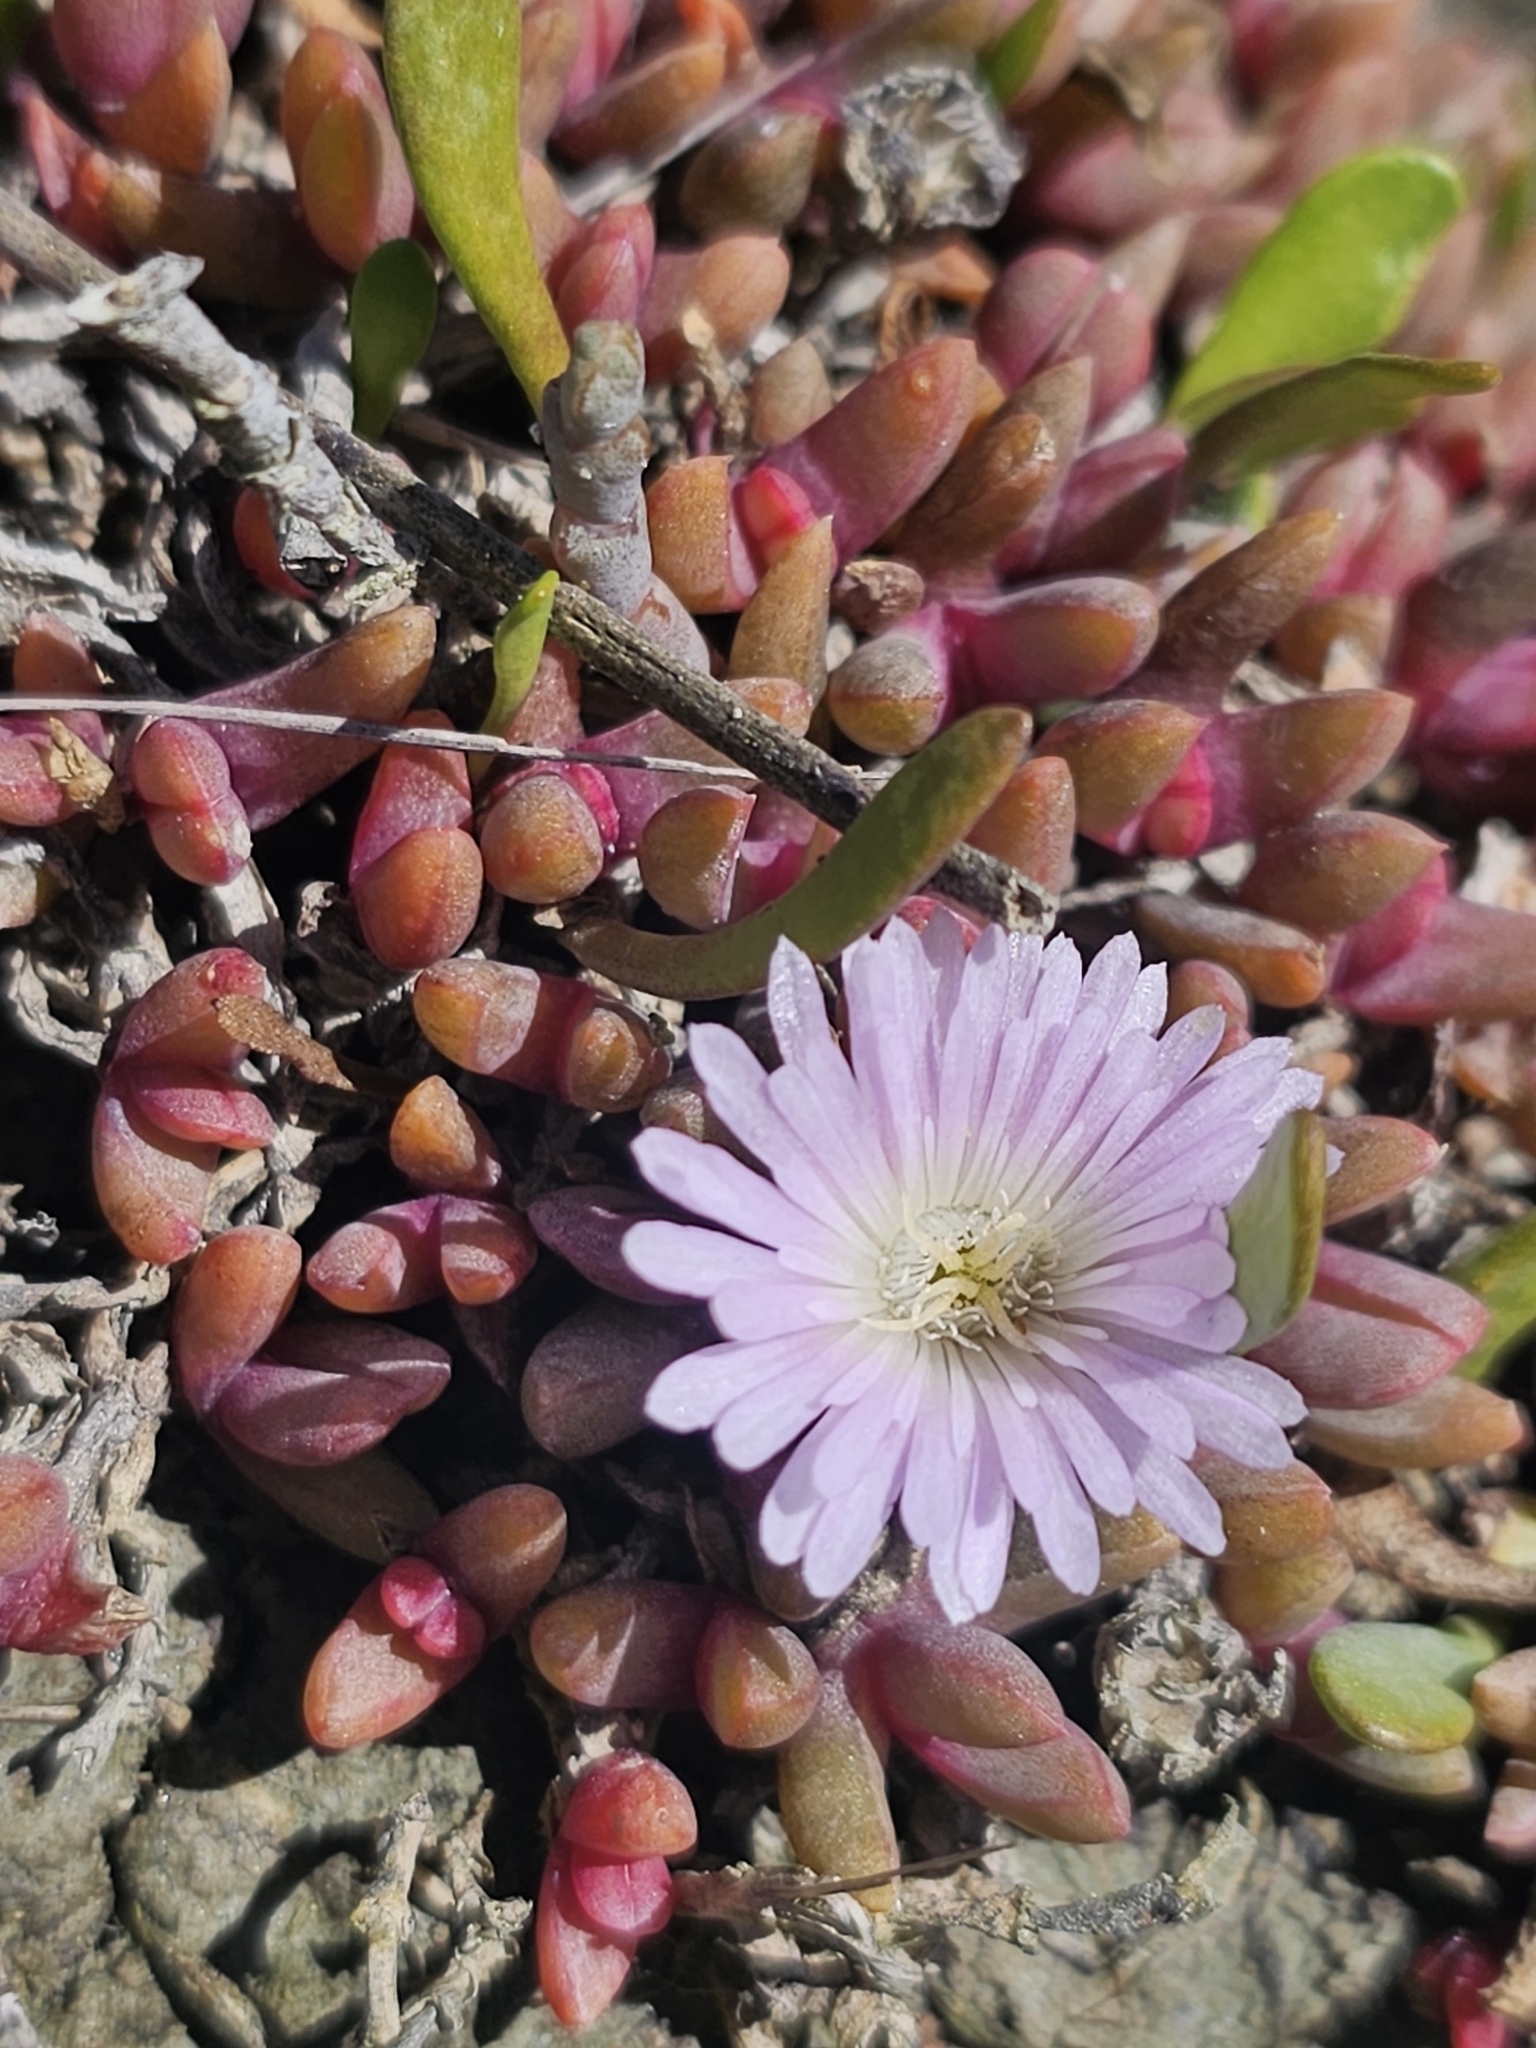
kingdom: Plantae
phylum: Tracheophyta
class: Magnoliopsida
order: Caryophyllales
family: Aizoaceae
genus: Disphyma
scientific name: Disphyma australe
